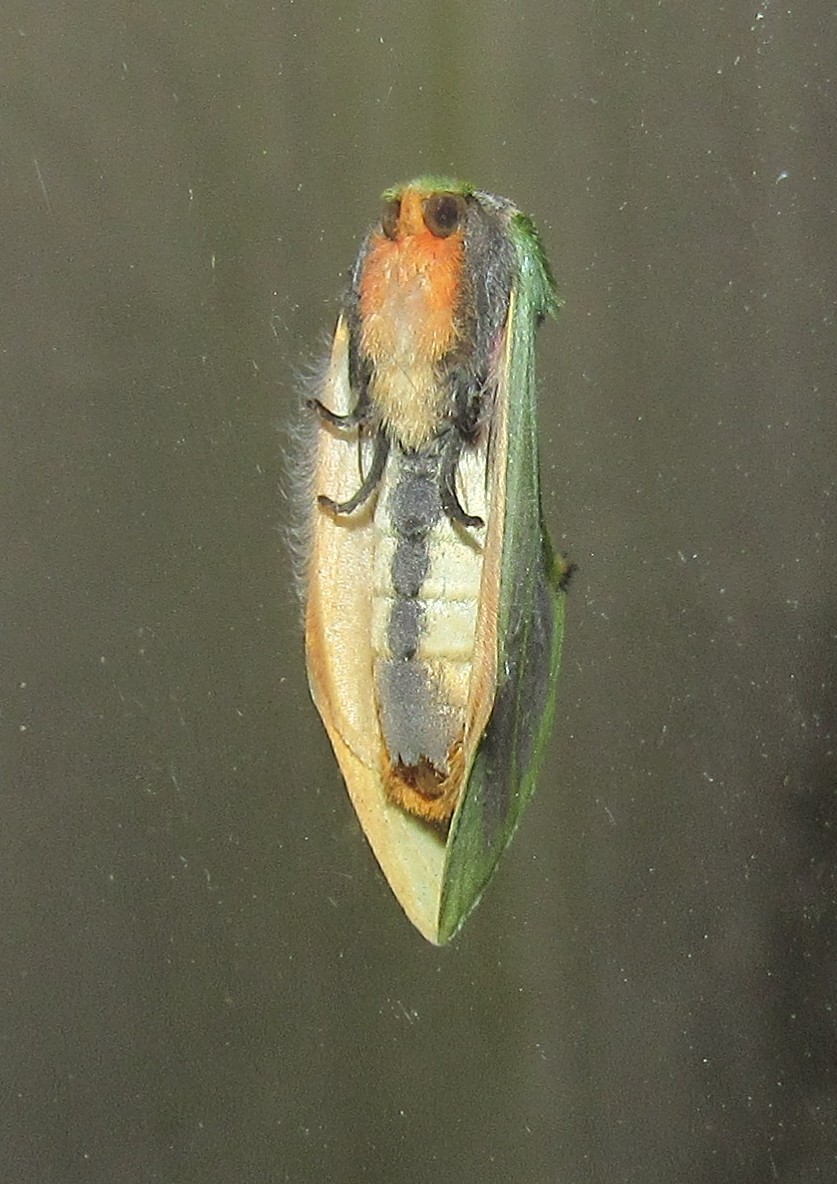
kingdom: Animalia
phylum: Arthropoda
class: Insecta
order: Lepidoptera
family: Notodontidae
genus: Zelica
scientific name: Zelica thalassina
